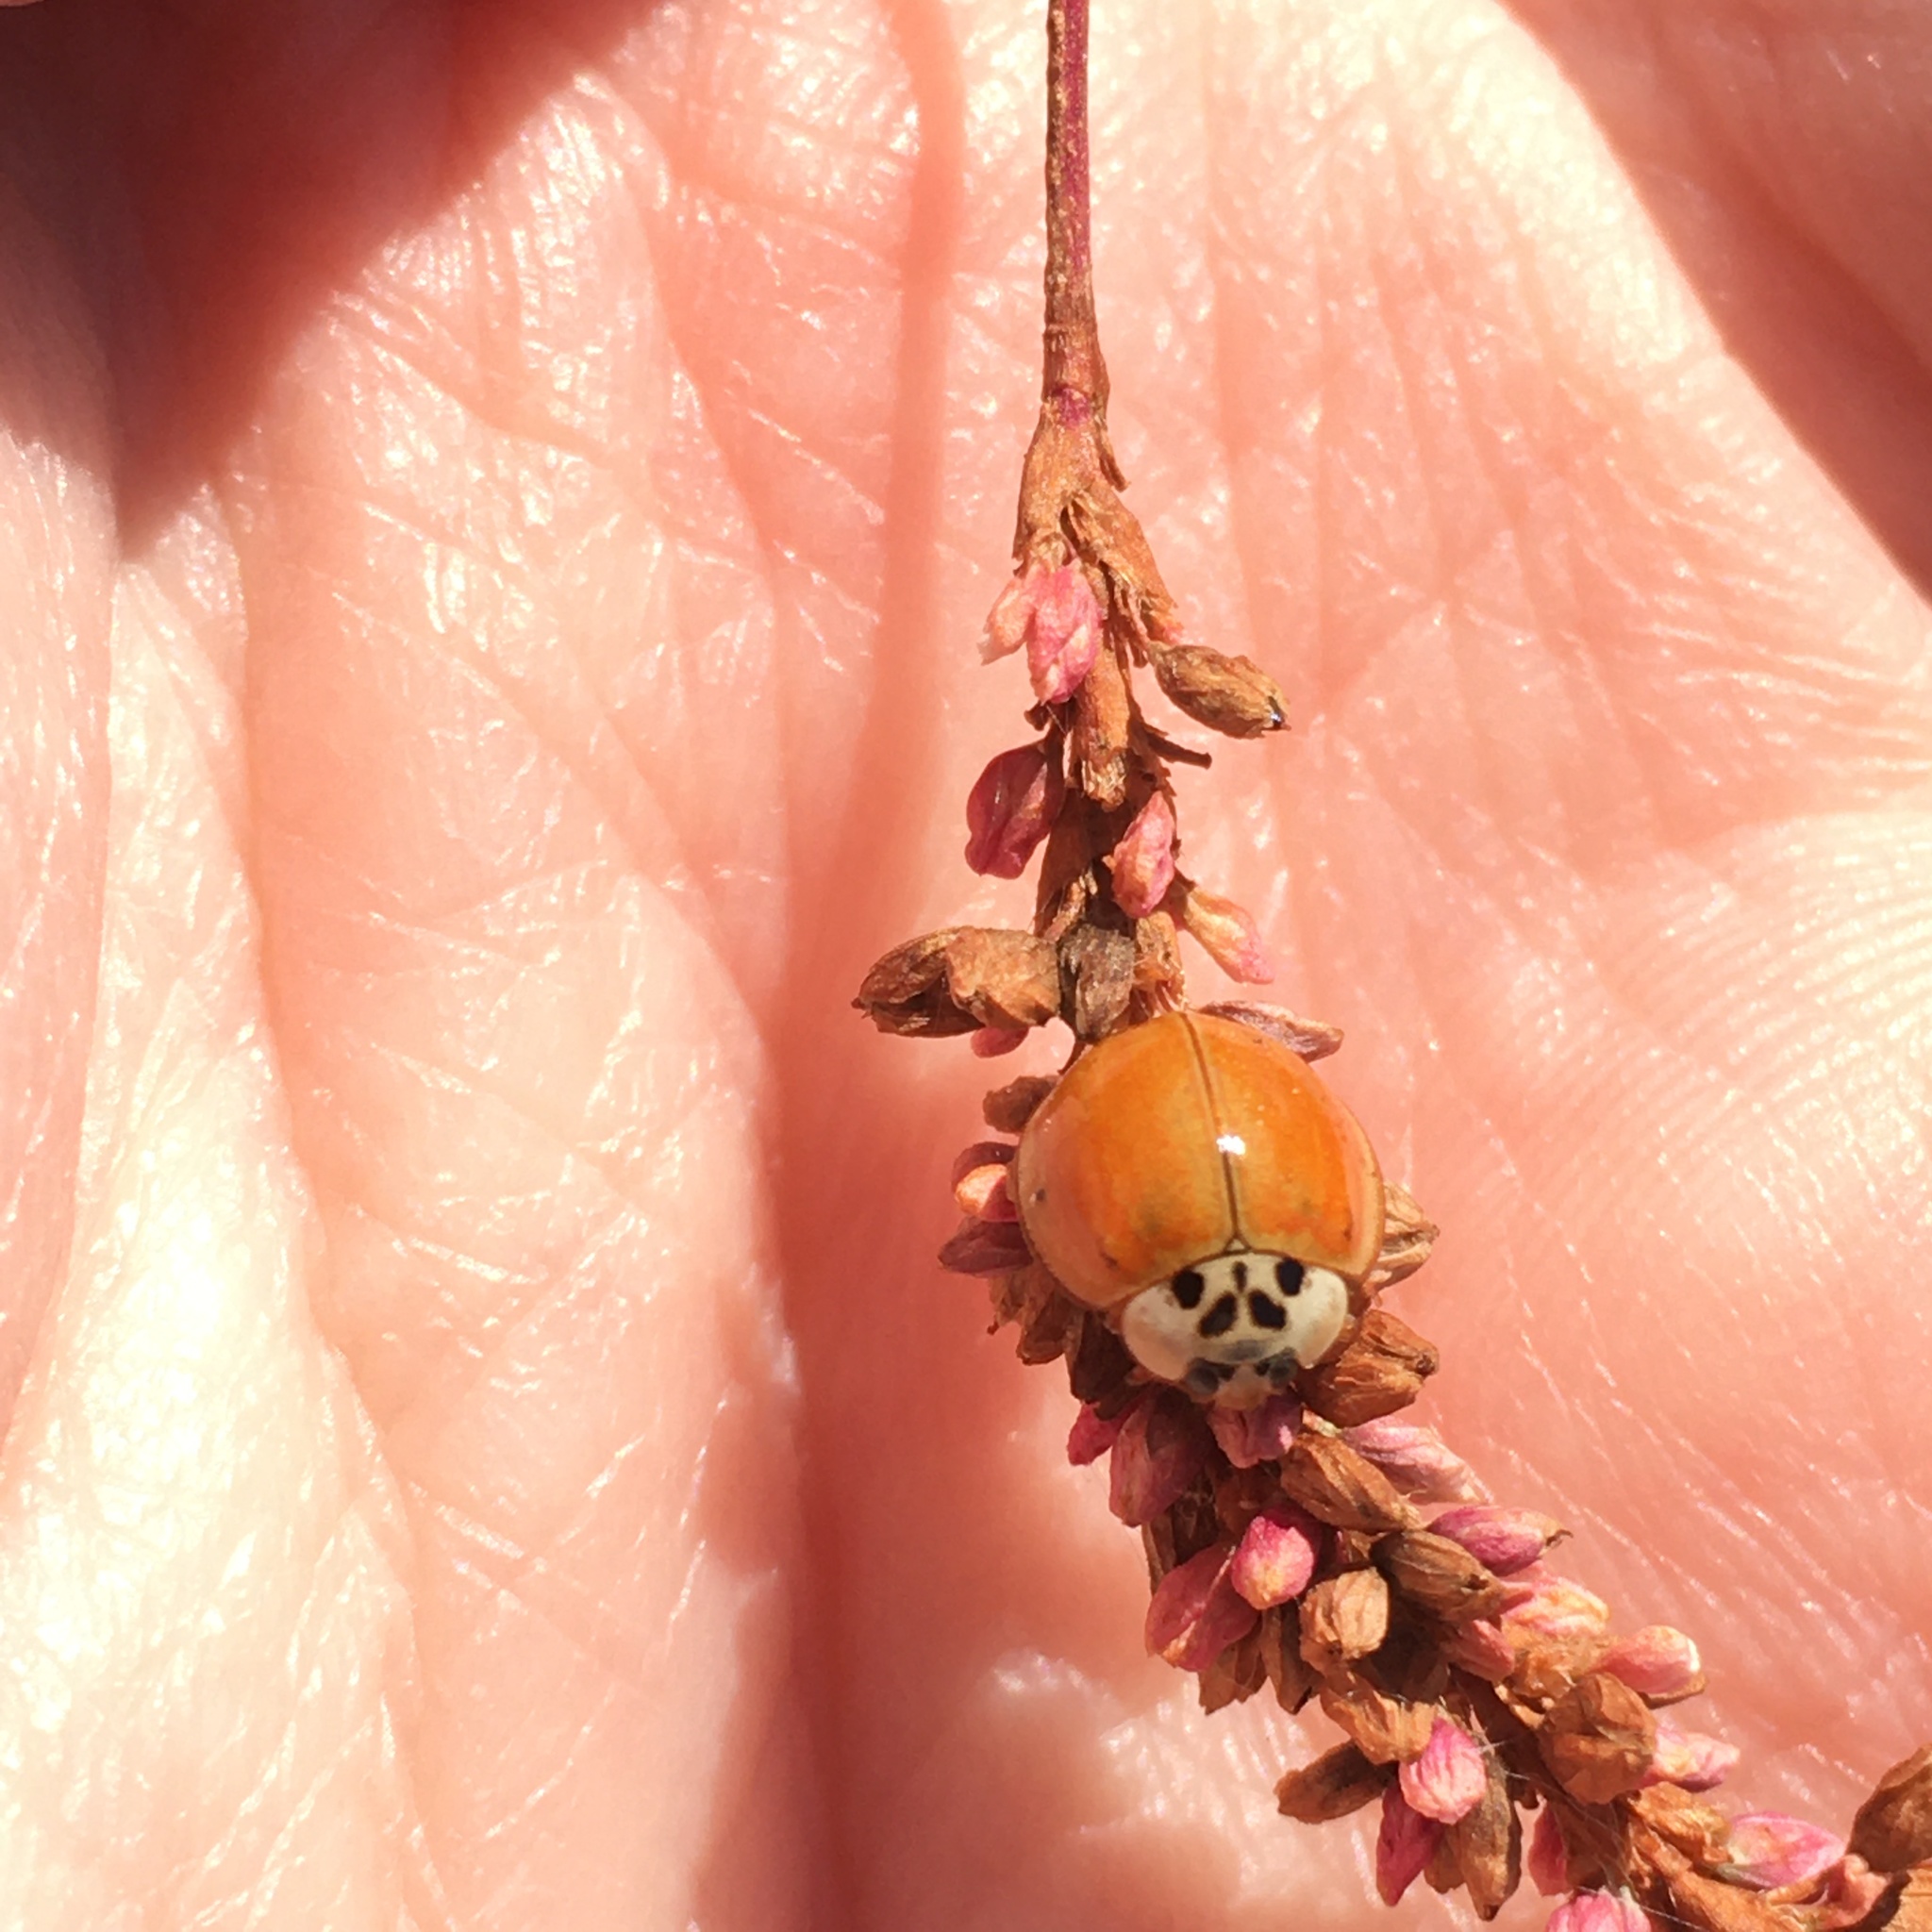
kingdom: Animalia
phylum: Arthropoda
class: Insecta
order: Coleoptera
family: Coccinellidae
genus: Harmonia
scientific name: Harmonia axyridis
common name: Harlequin ladybird
